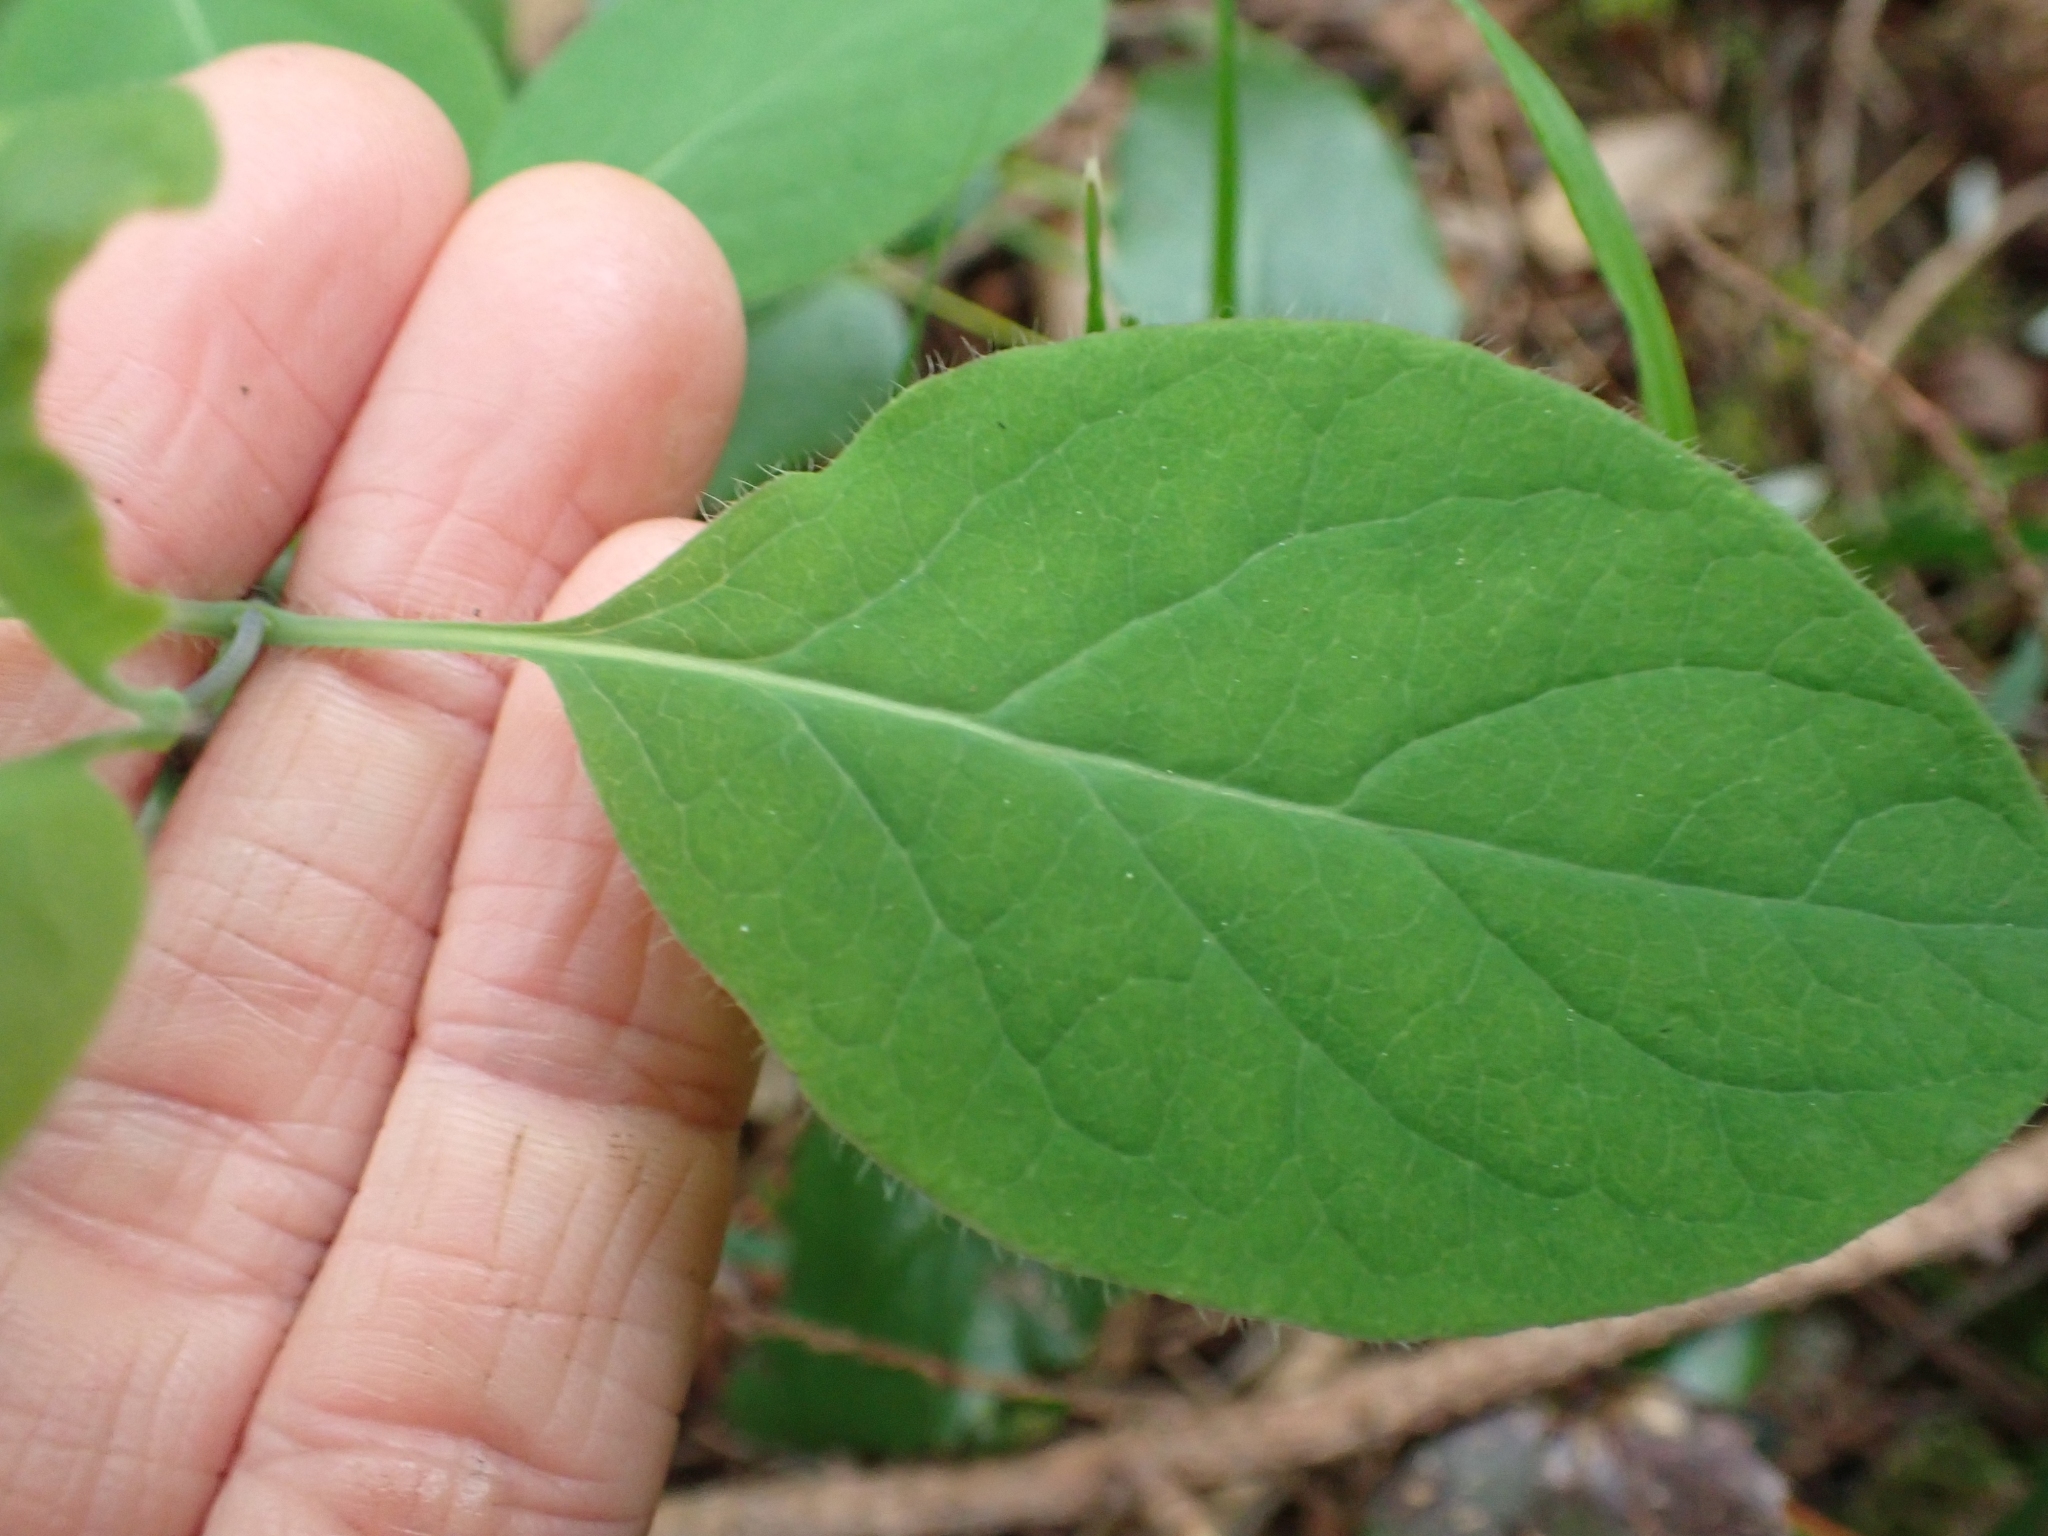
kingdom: Plantae
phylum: Tracheophyta
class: Magnoliopsida
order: Dipsacales
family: Caprifoliaceae
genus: Lonicera
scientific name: Lonicera ciliosa
